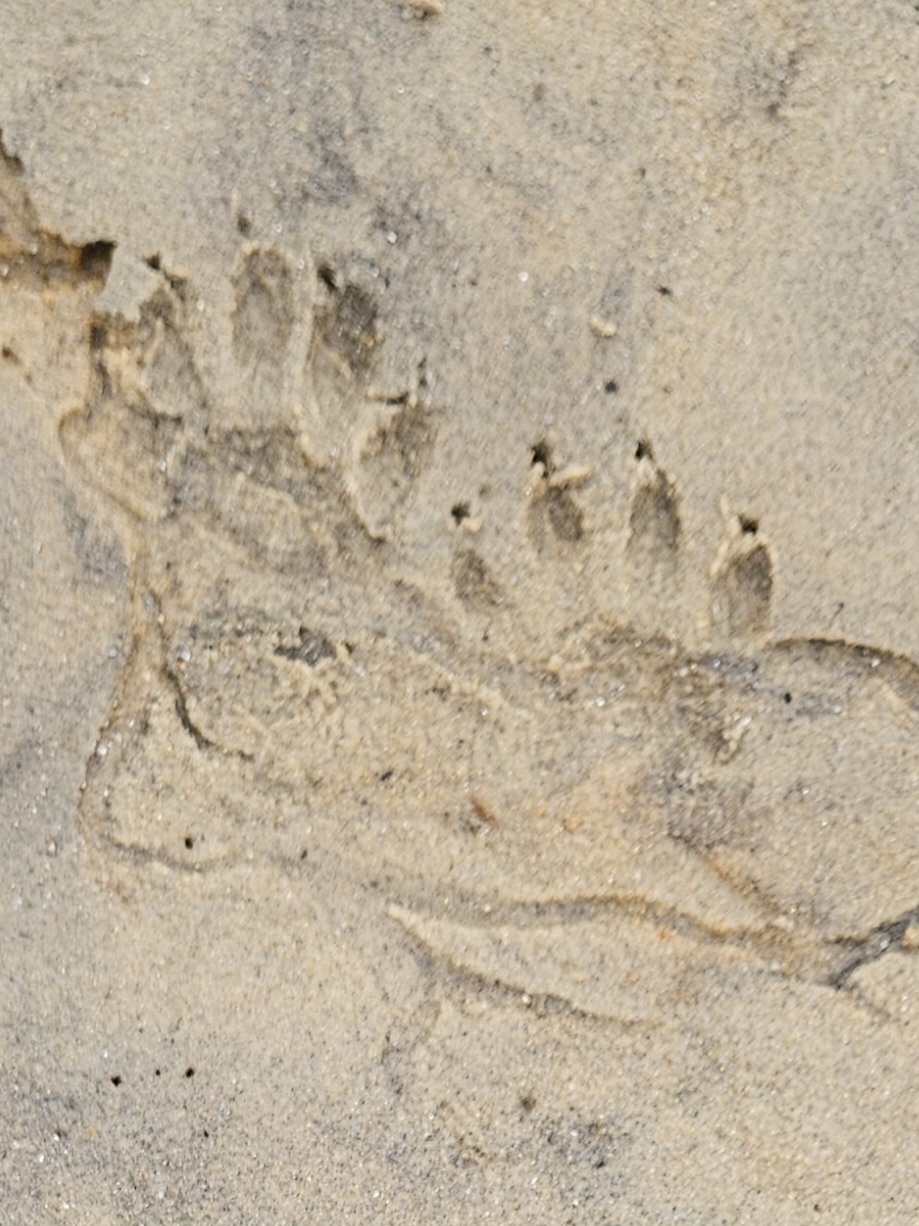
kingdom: Animalia
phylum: Chordata
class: Mammalia
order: Carnivora
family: Procyonidae
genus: Procyon
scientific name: Procyon lotor
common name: Raccoon
